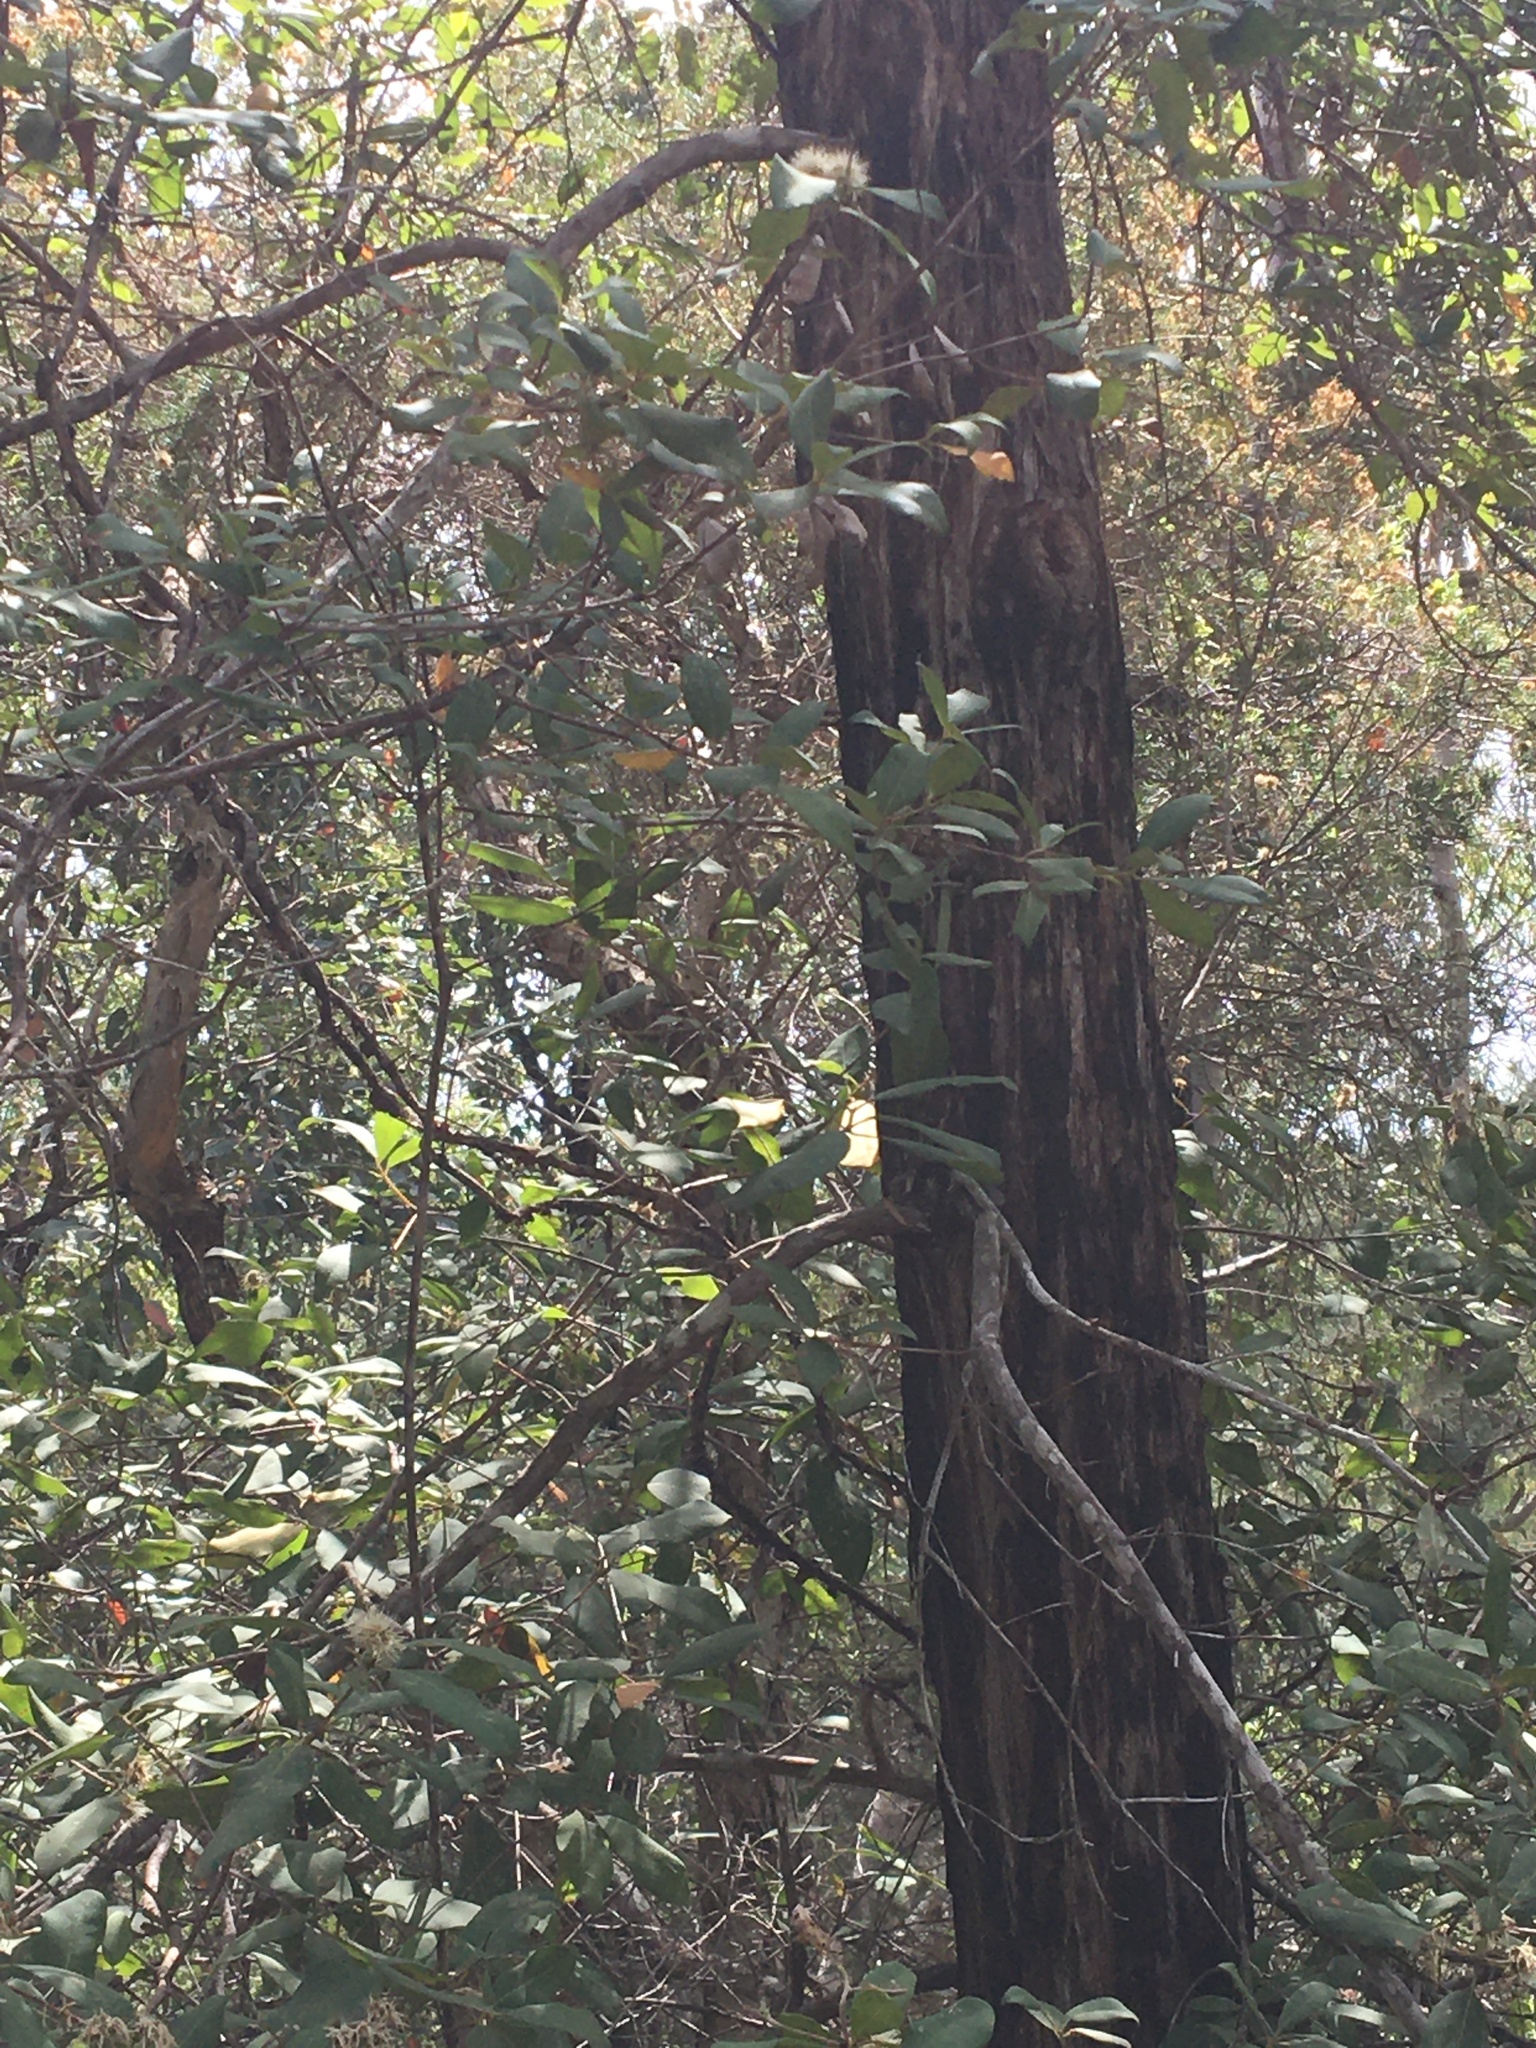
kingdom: Plantae
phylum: Tracheophyta
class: Magnoliopsida
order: Myrtales
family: Myrtaceae
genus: Syncarpia
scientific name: Syncarpia glomulifera
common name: Turpentine tree
